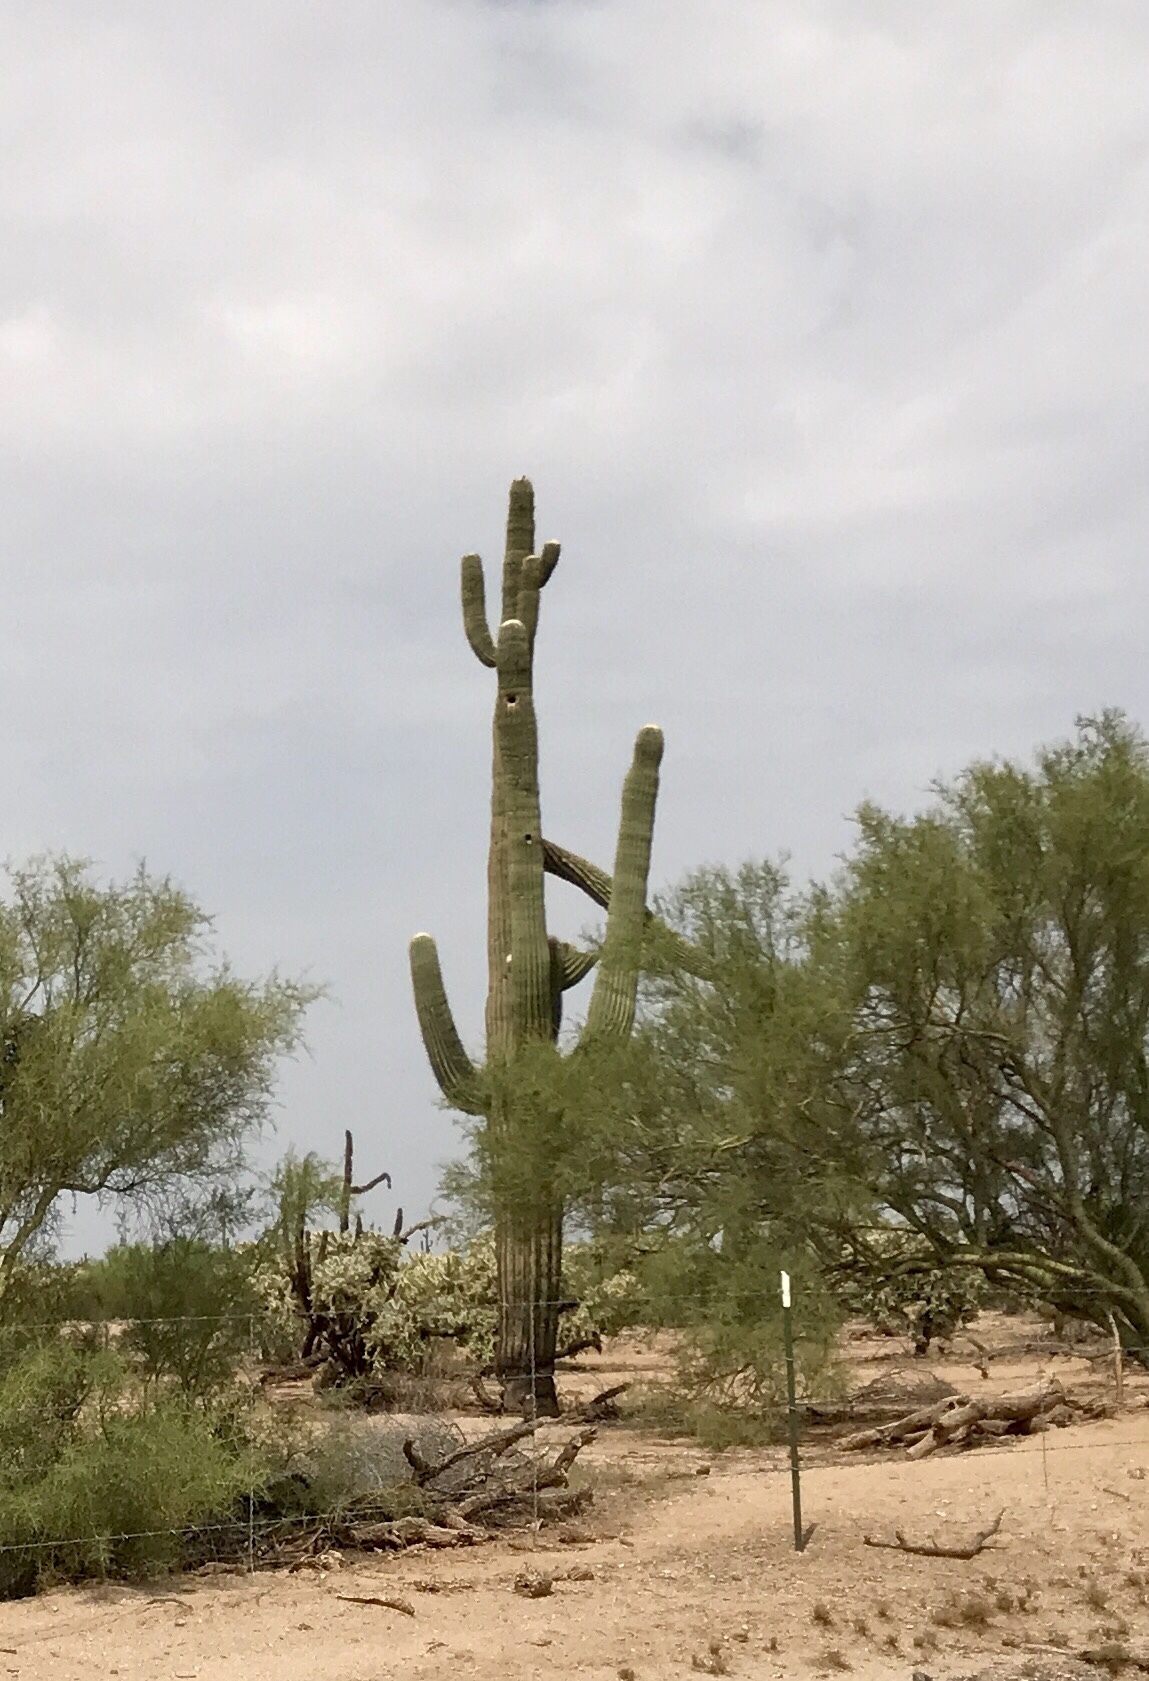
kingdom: Plantae
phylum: Tracheophyta
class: Magnoliopsida
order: Caryophyllales
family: Cactaceae
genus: Carnegiea
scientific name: Carnegiea gigantea
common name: Saguaro
